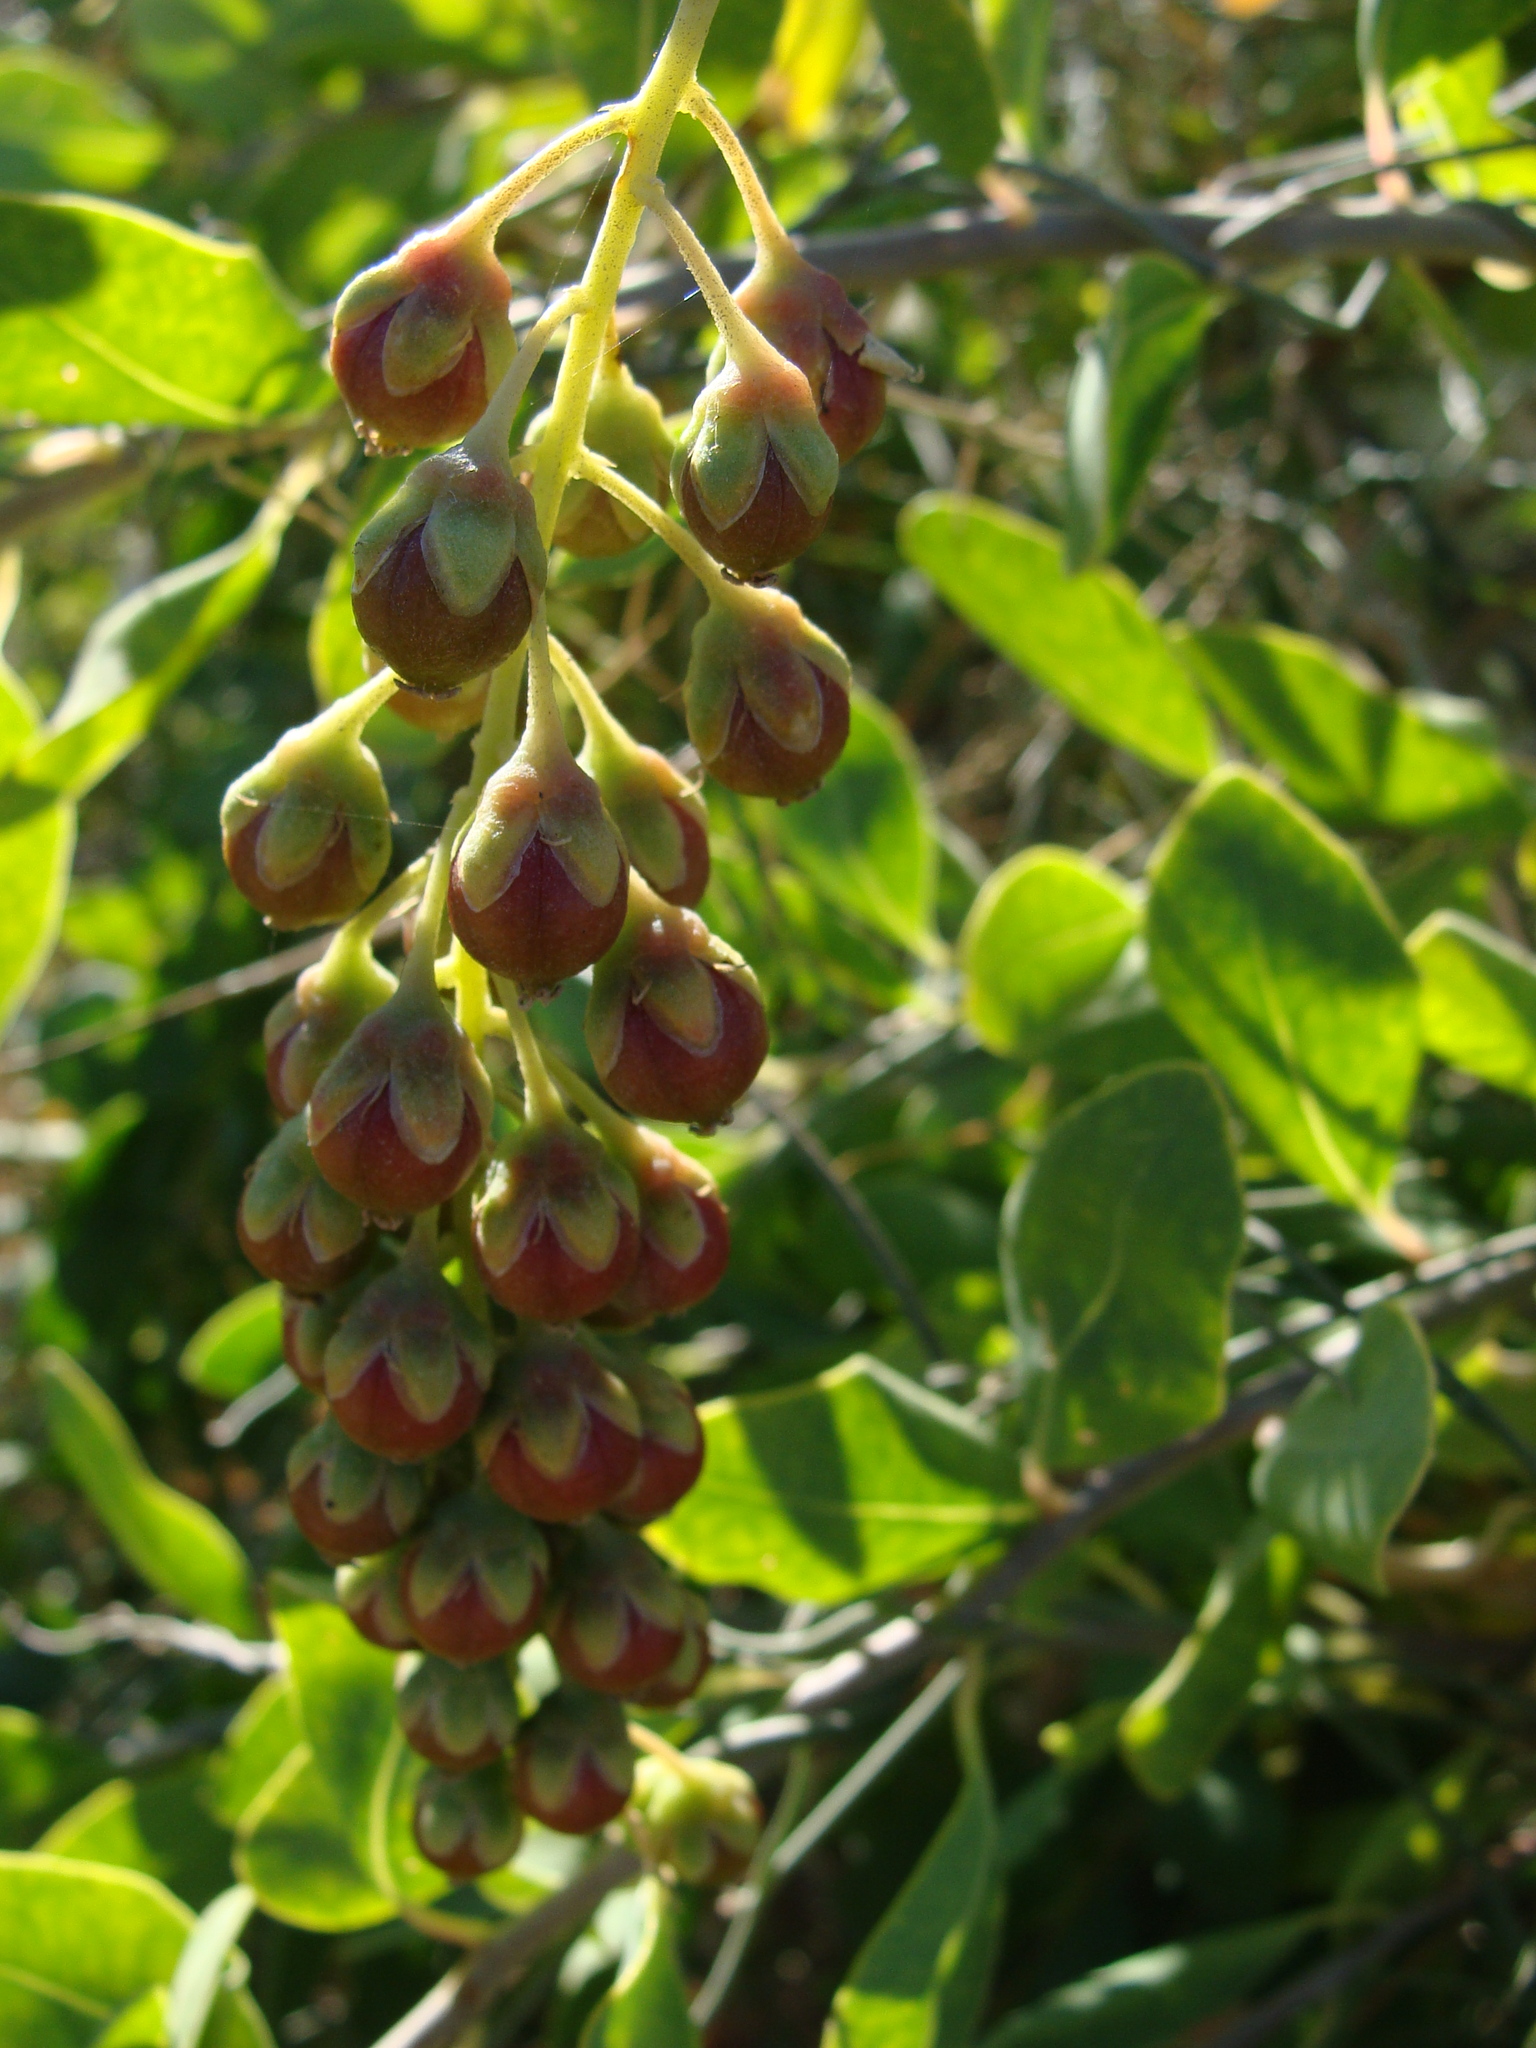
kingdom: Plantae
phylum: Tracheophyta
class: Magnoliopsida
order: Caryophyllales
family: Stegnospermataceae
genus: Stegnosperma
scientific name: Stegnosperma halimifolium
